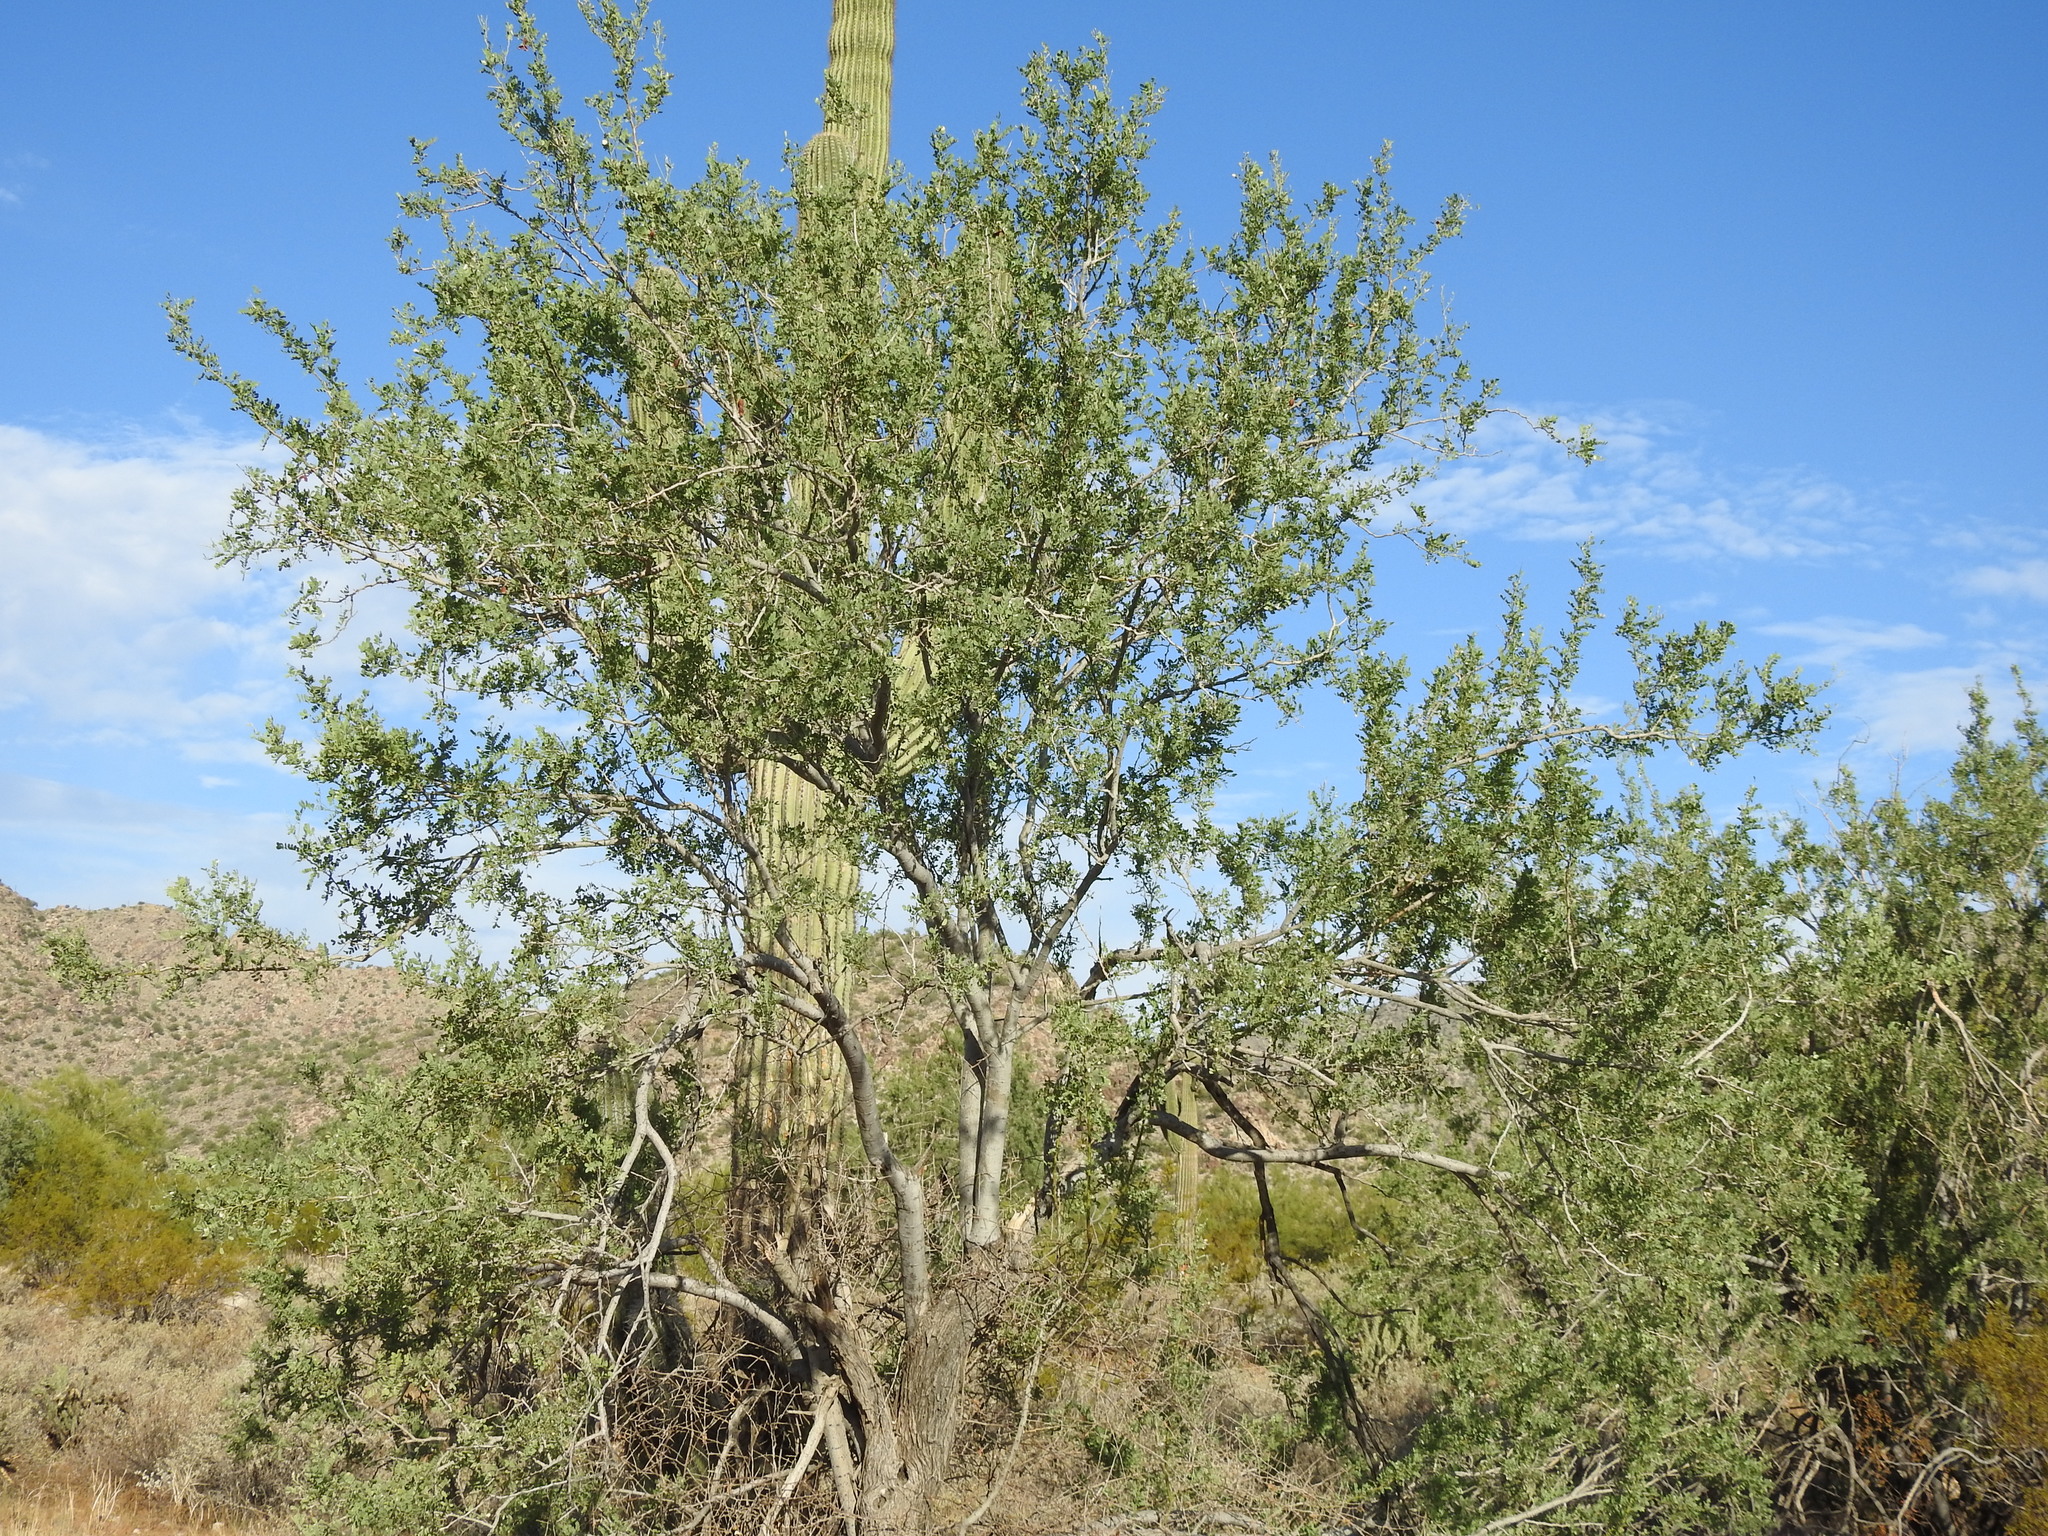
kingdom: Plantae
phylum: Tracheophyta
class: Magnoliopsida
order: Fabales
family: Fabaceae
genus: Olneya
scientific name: Olneya tesota
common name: Desert ironwood
